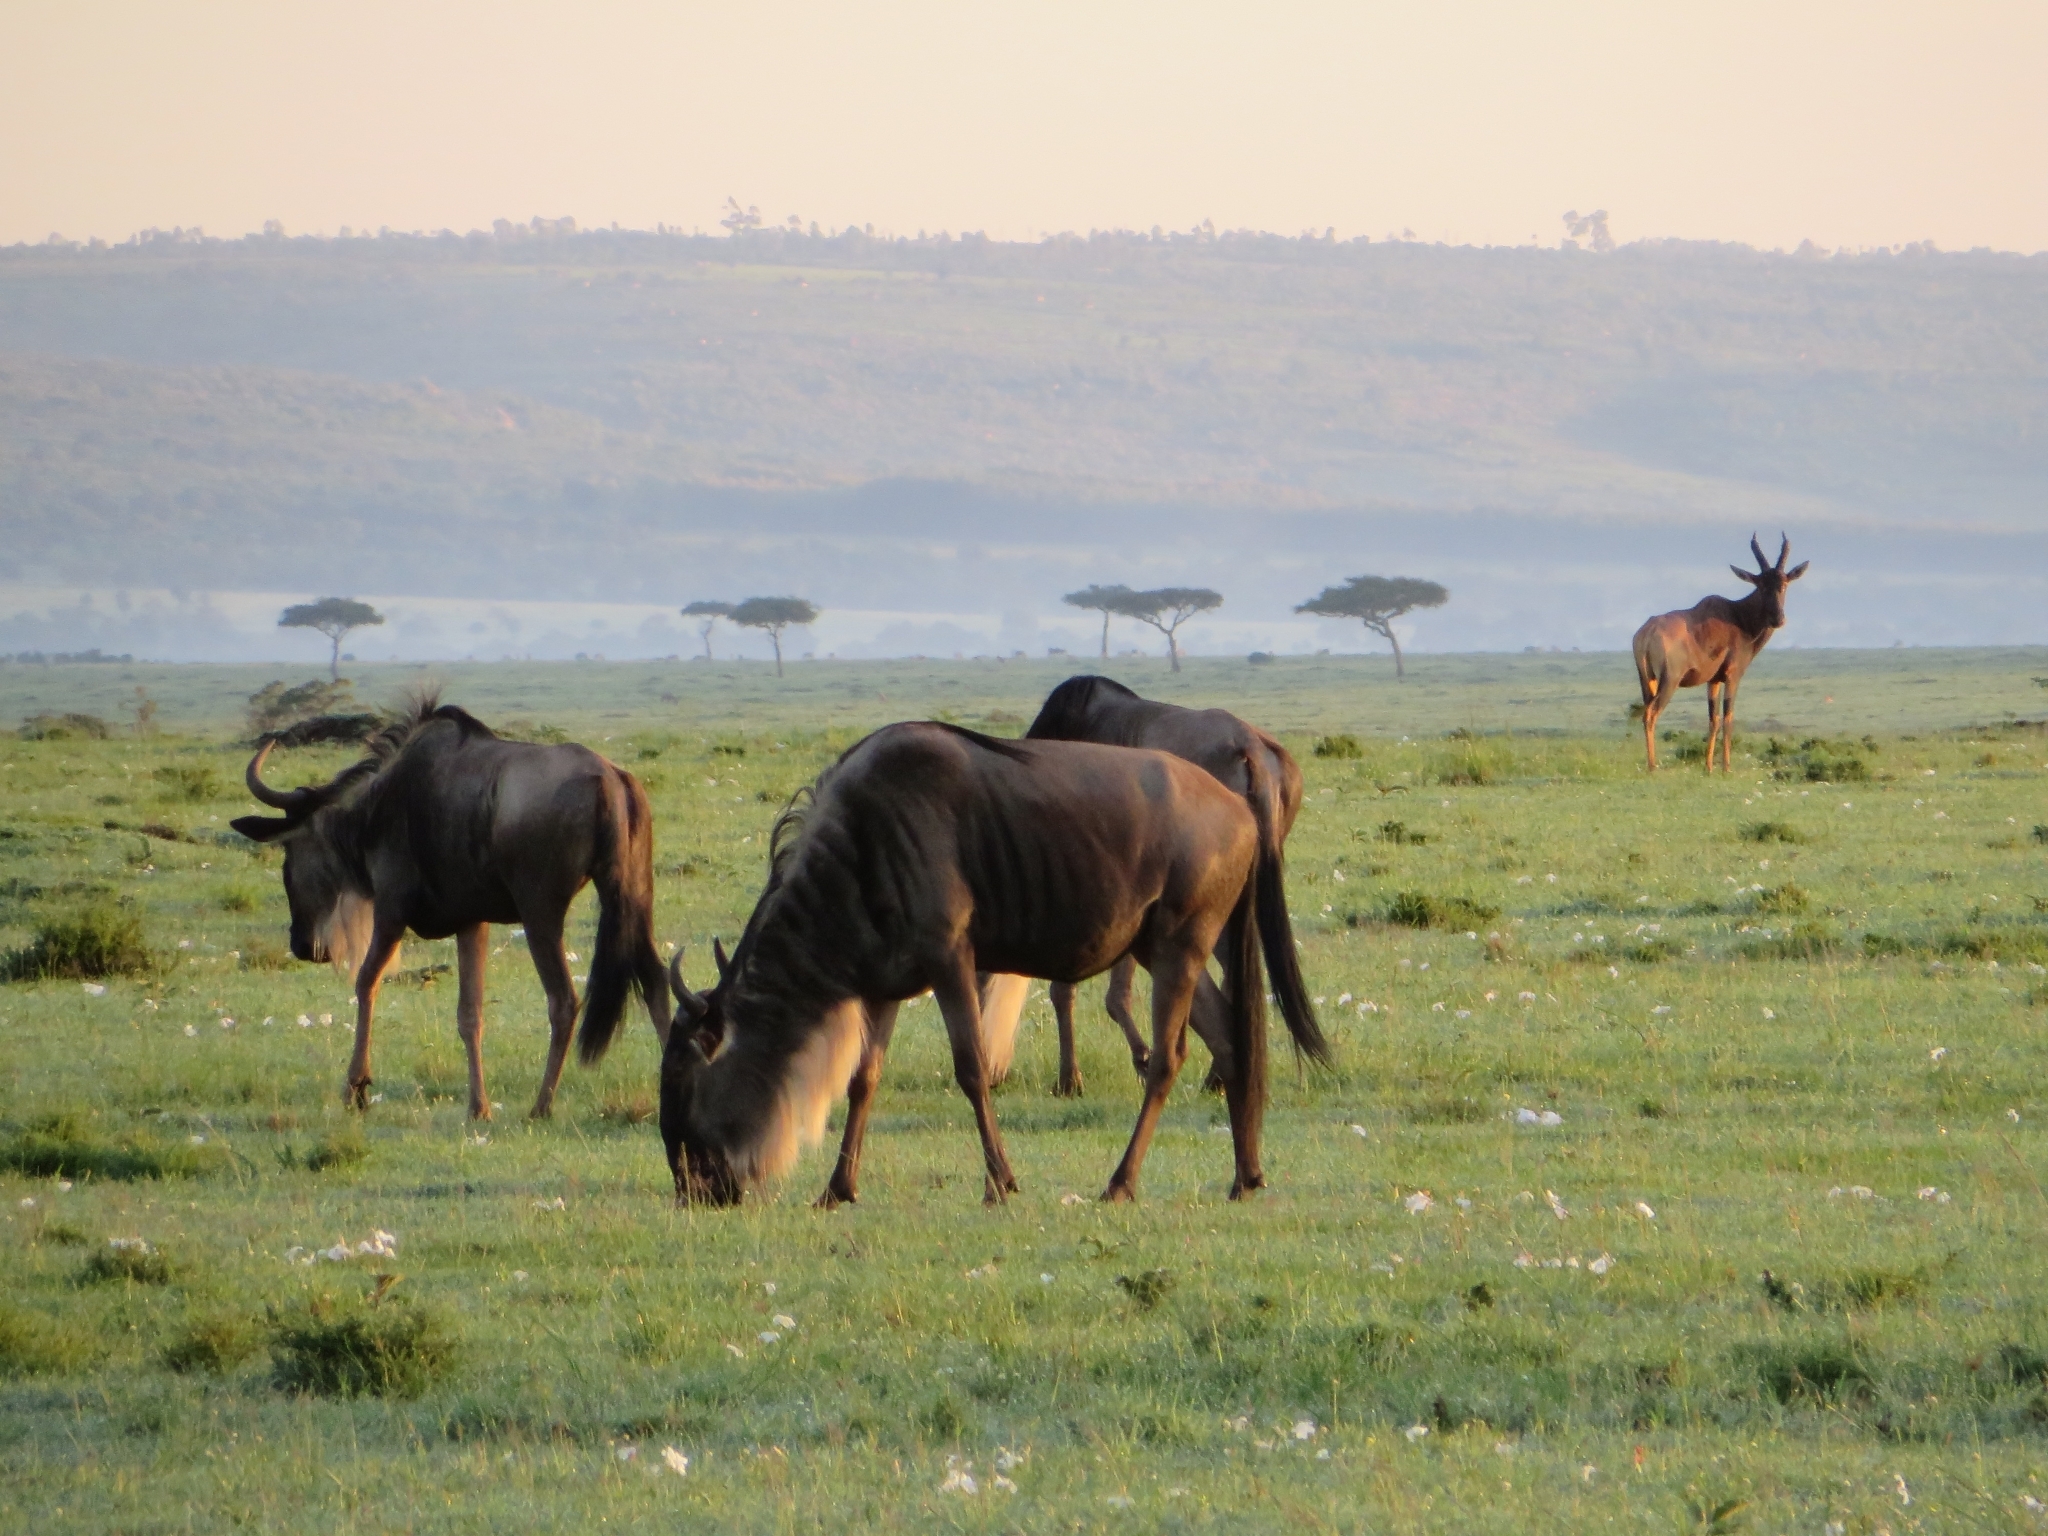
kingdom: Animalia
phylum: Chordata
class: Mammalia
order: Artiodactyla
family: Bovidae
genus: Connochaetes
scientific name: Connochaetes taurinus
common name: Blue wildebeest
